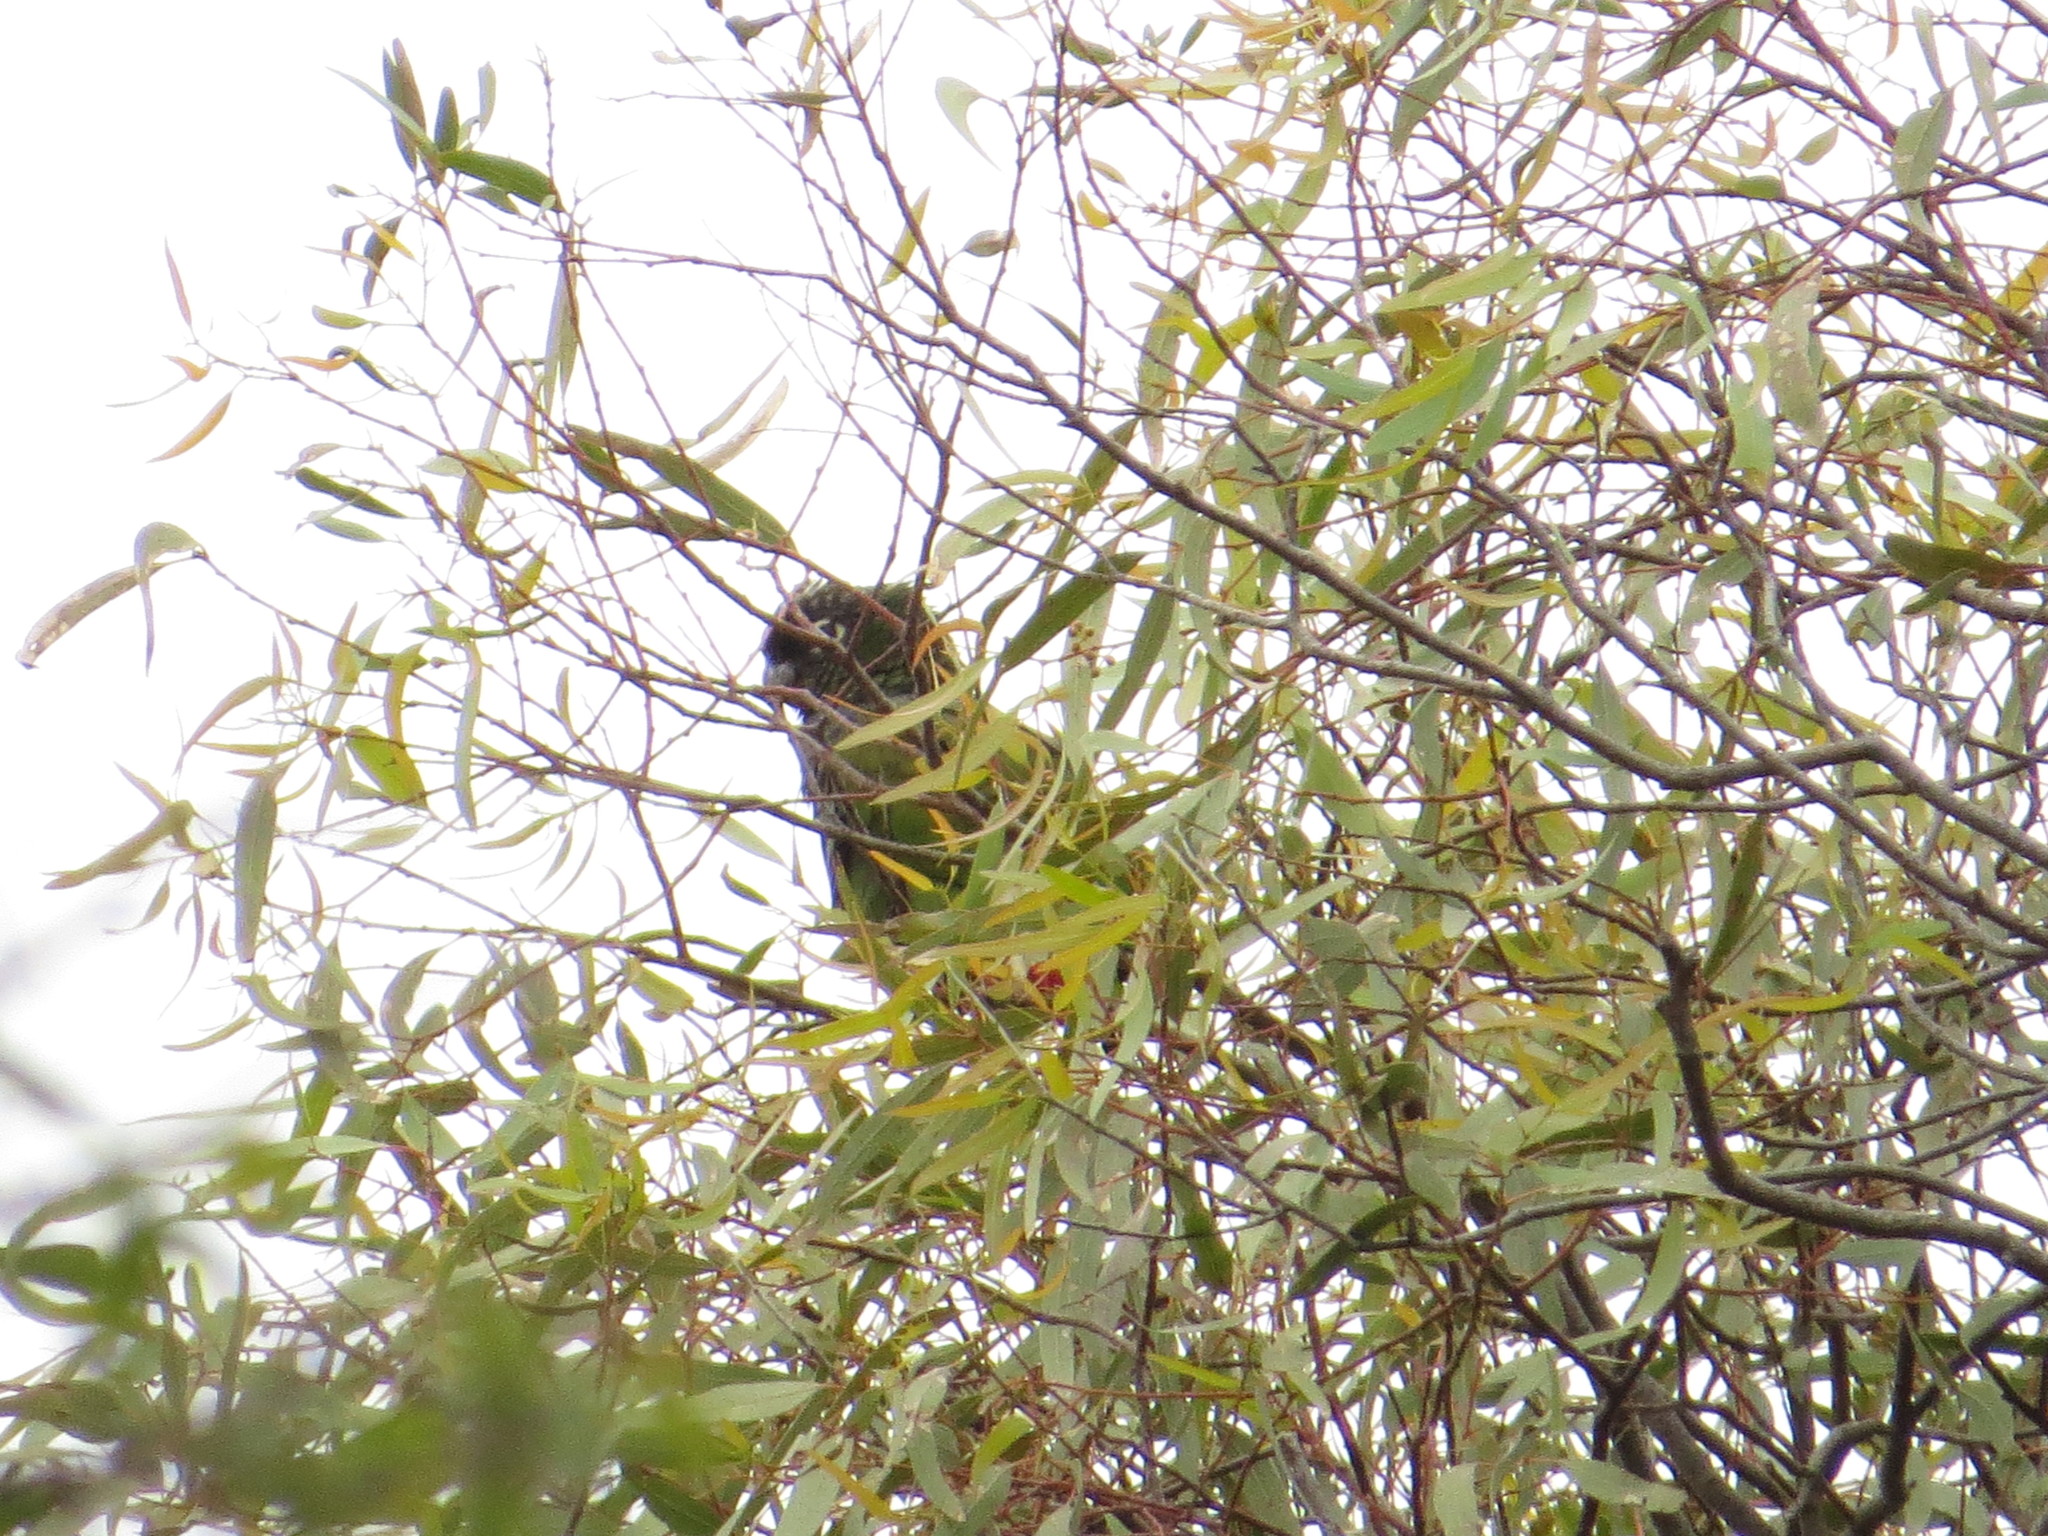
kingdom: Animalia
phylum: Chordata
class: Aves
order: Psittaciformes
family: Psittacidae
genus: Pyrrhura
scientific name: Pyrrhura frontalis
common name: Maroon-bellied parakeet
